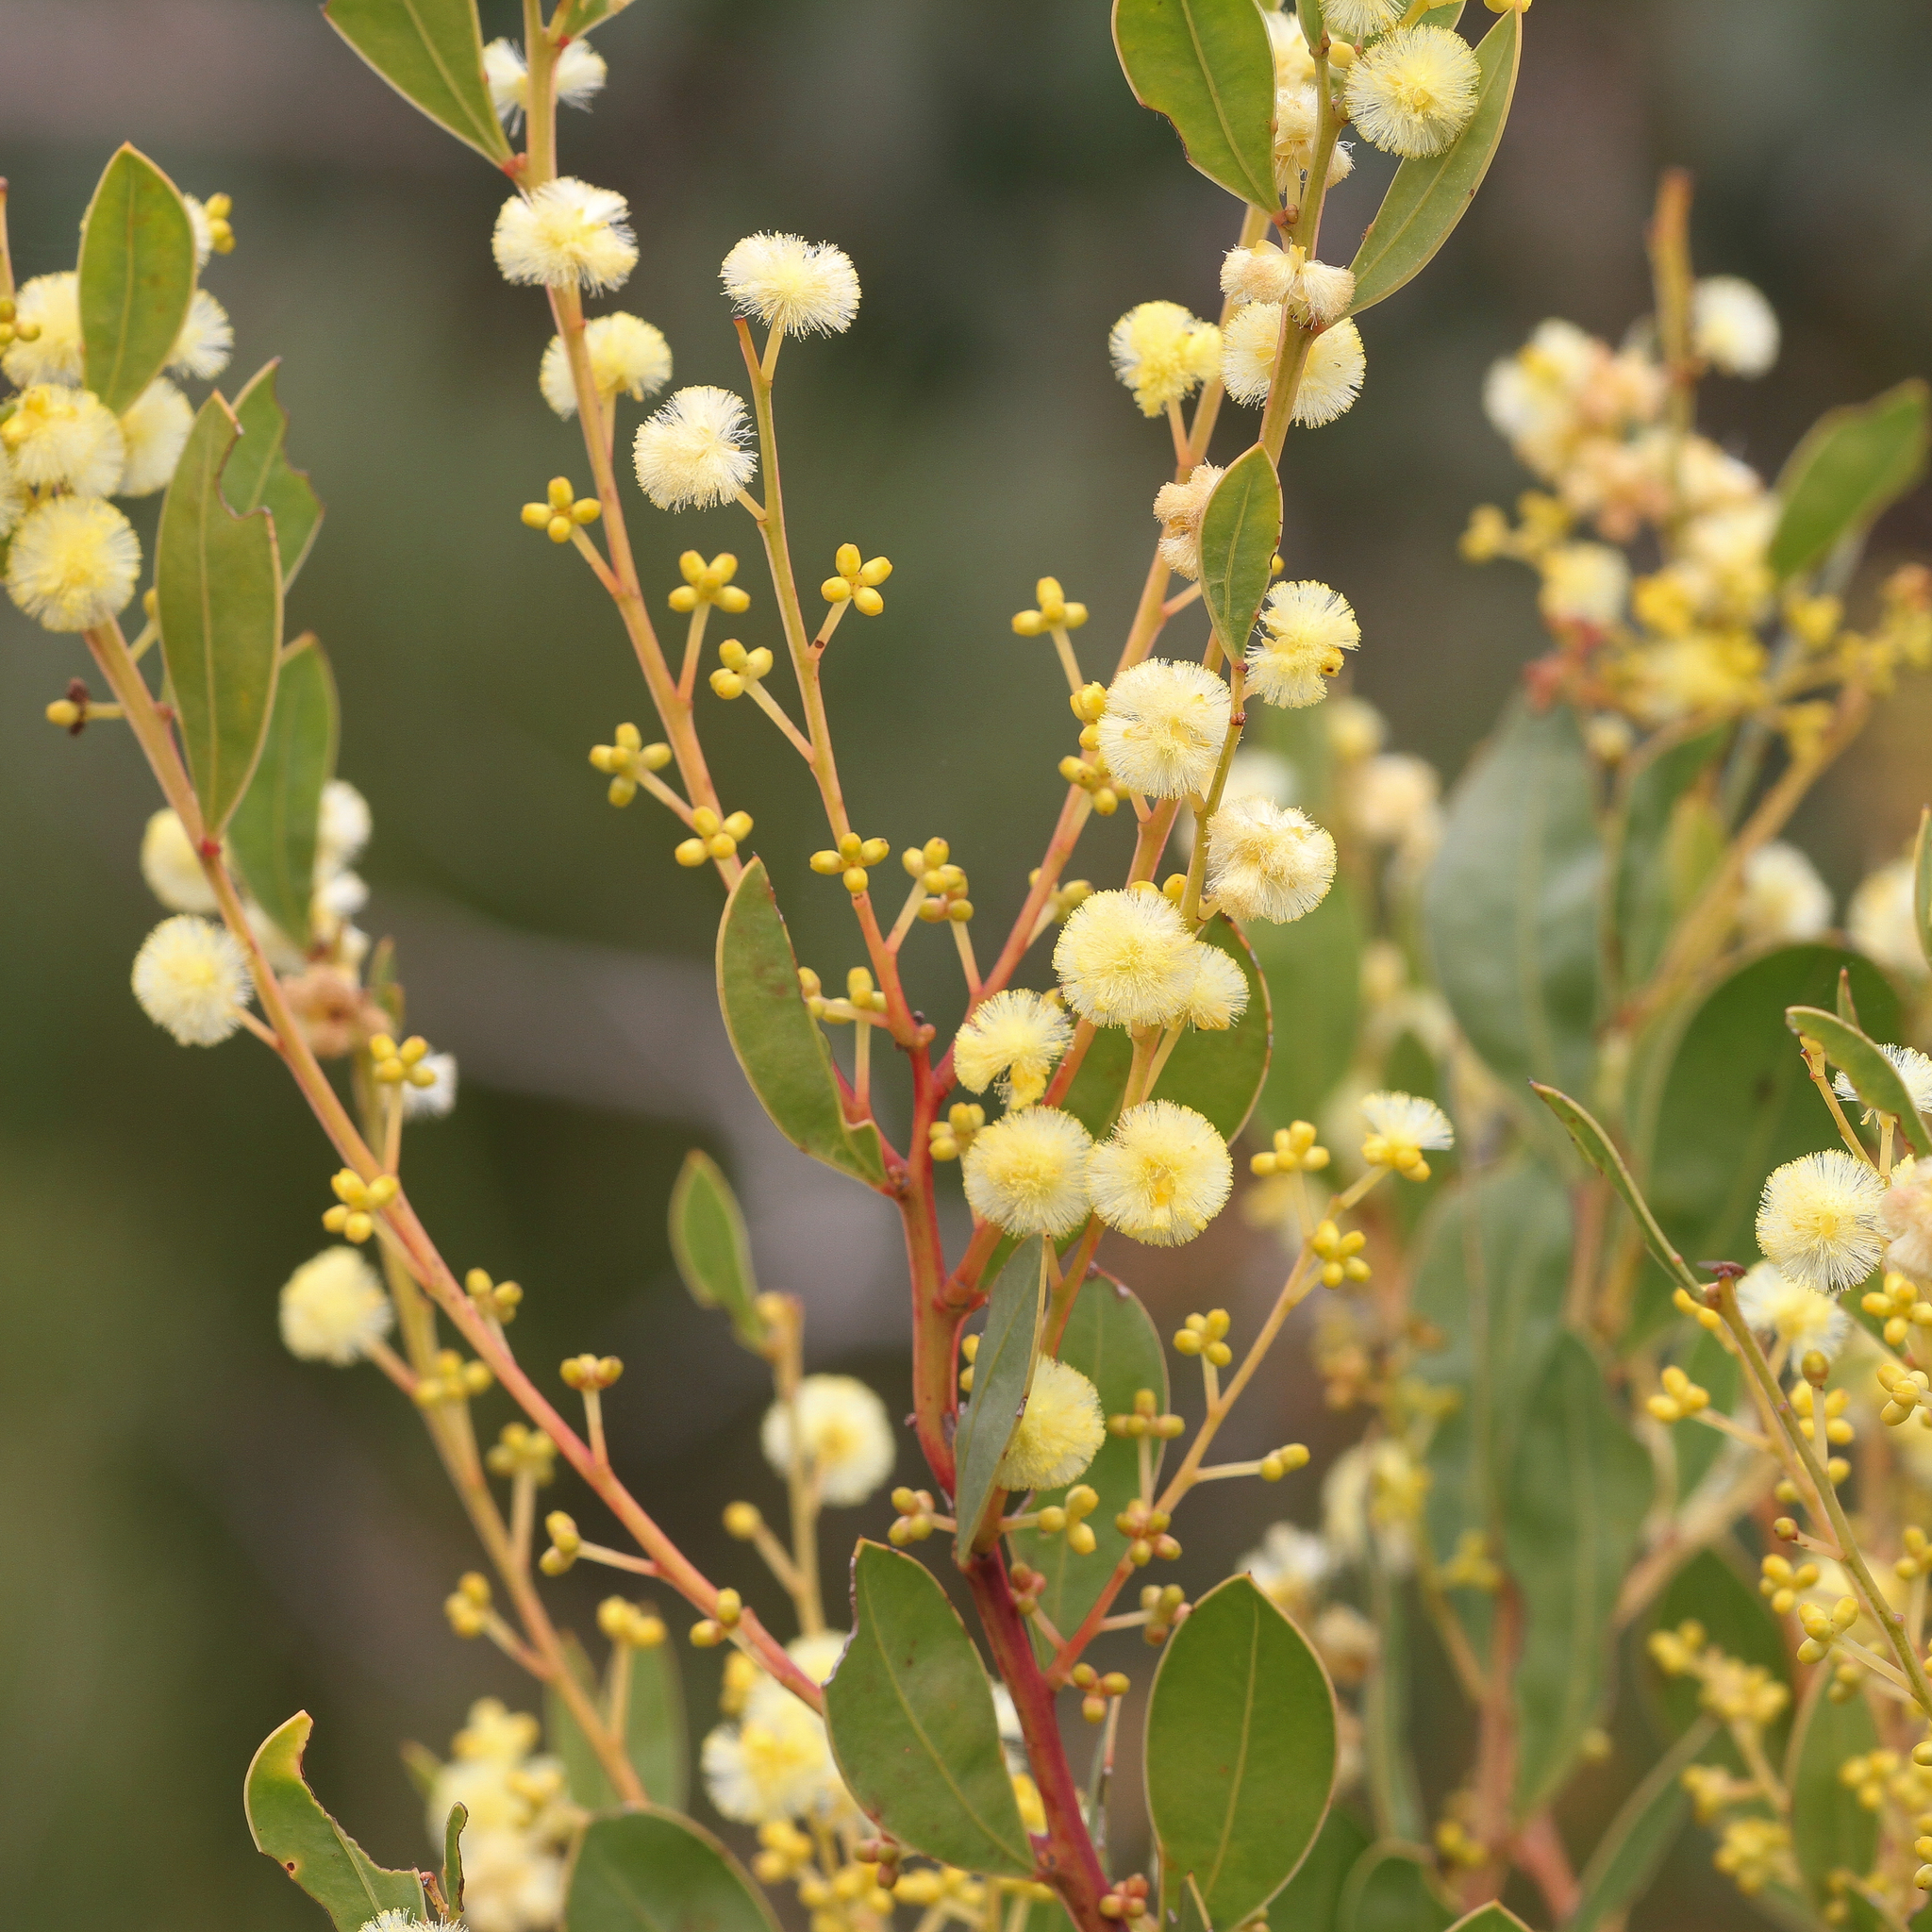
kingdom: Plantae
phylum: Tracheophyta
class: Magnoliopsida
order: Fabales
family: Fabaceae
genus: Acacia
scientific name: Acacia myrtifolia
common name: Myrtle wattle
